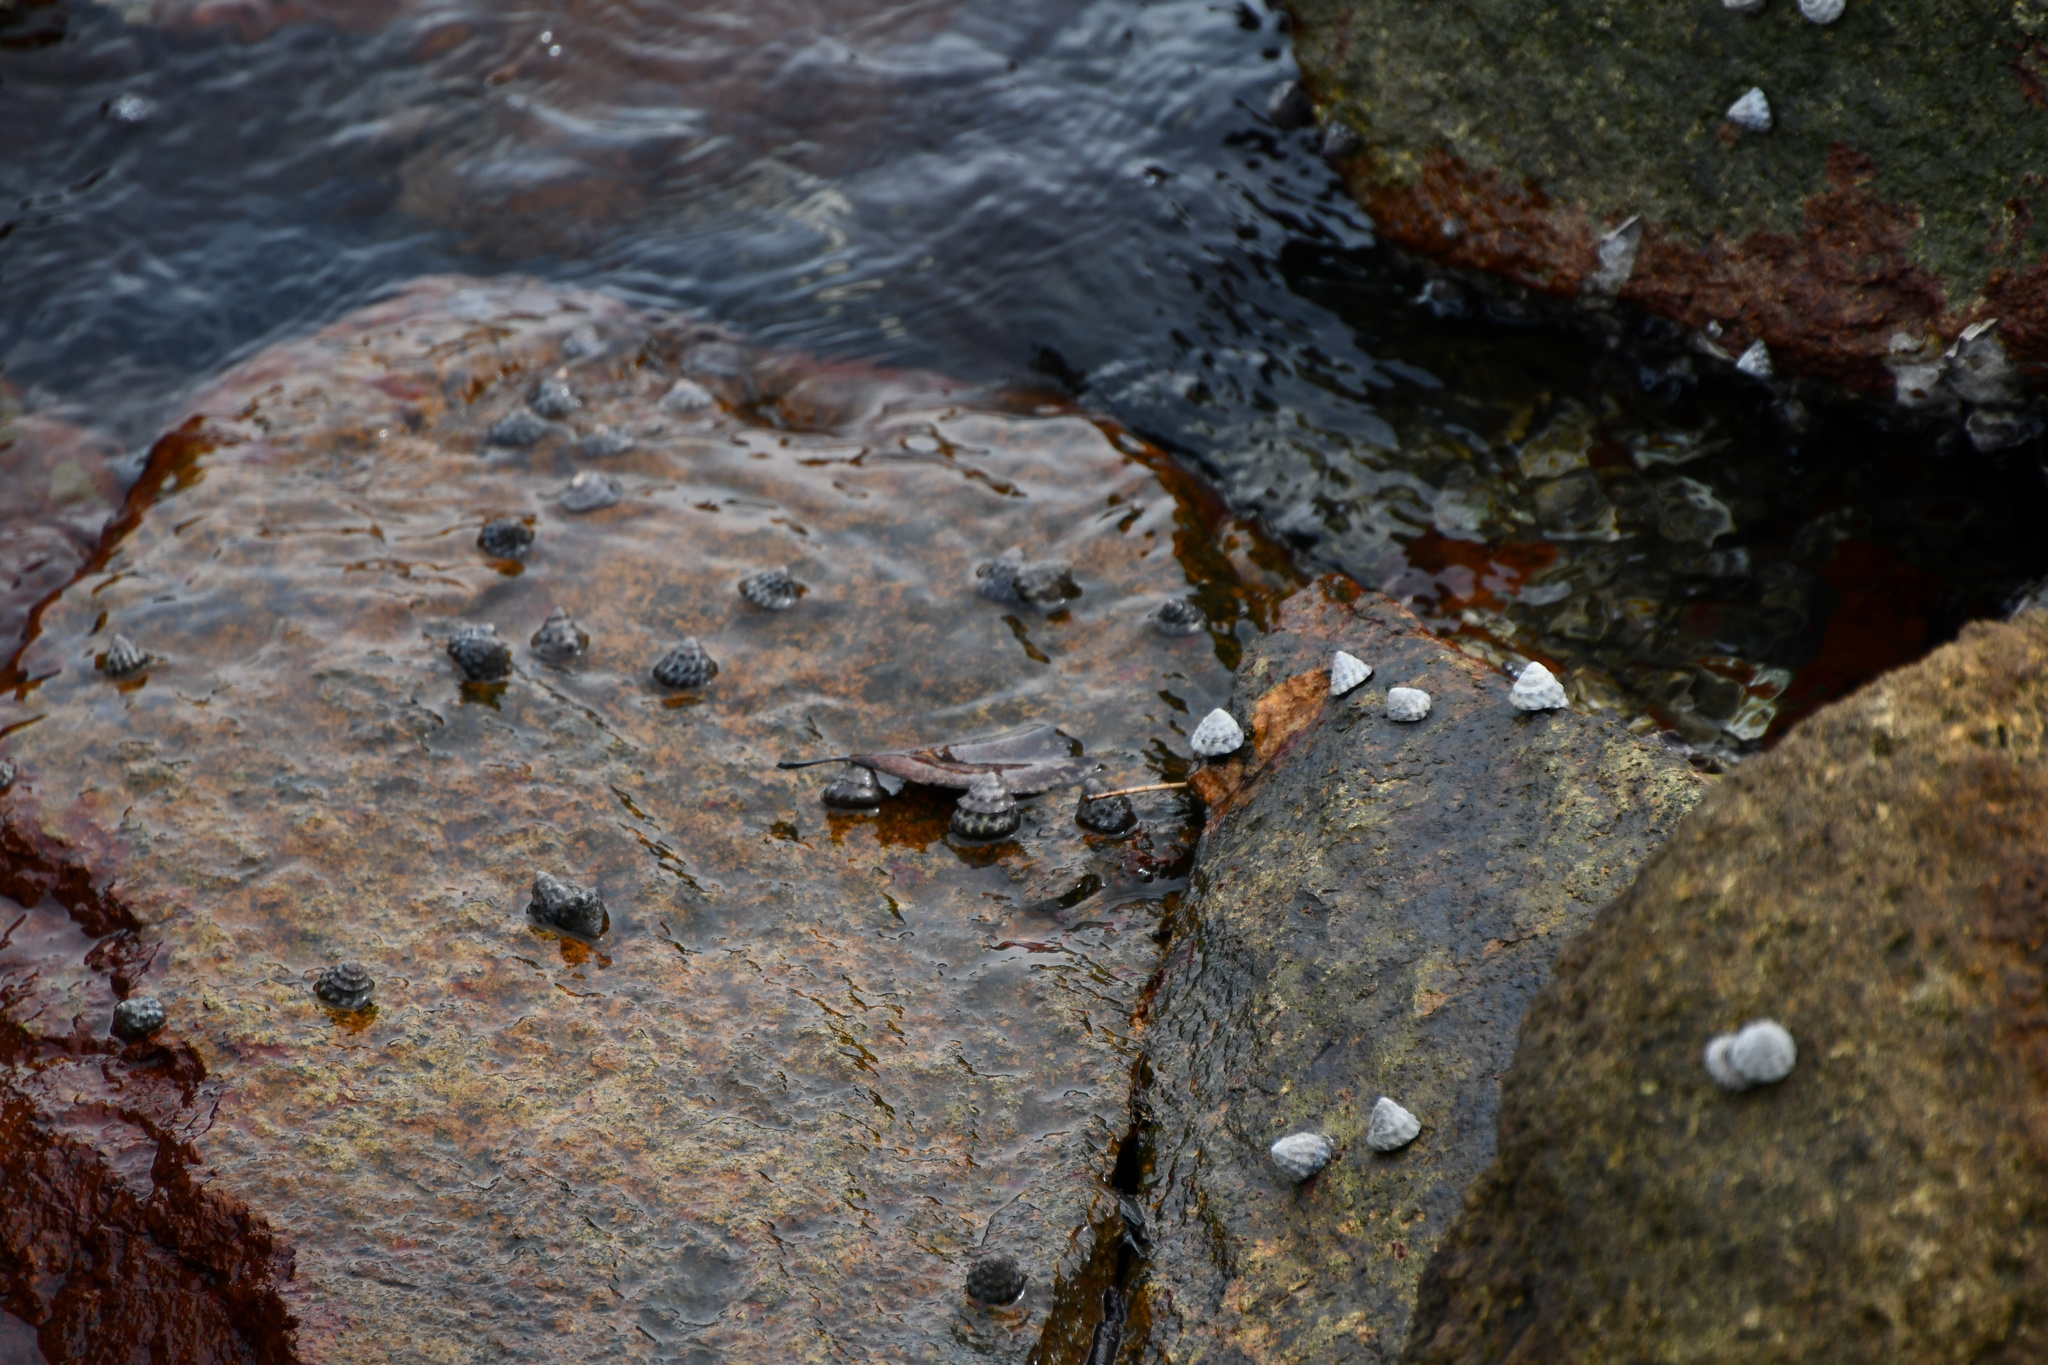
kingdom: Animalia
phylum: Mollusca
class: Gastropoda
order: Littorinimorpha
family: Littorinidae
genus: Bembicium
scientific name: Bembicium auratum
